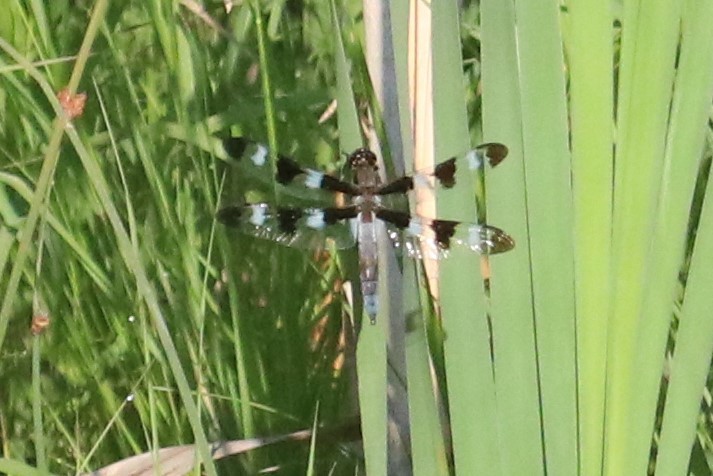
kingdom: Animalia
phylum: Arthropoda
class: Insecta
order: Odonata
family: Libellulidae
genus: Libellula
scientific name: Libellula pulchella
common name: Twelve-spotted skimmer
